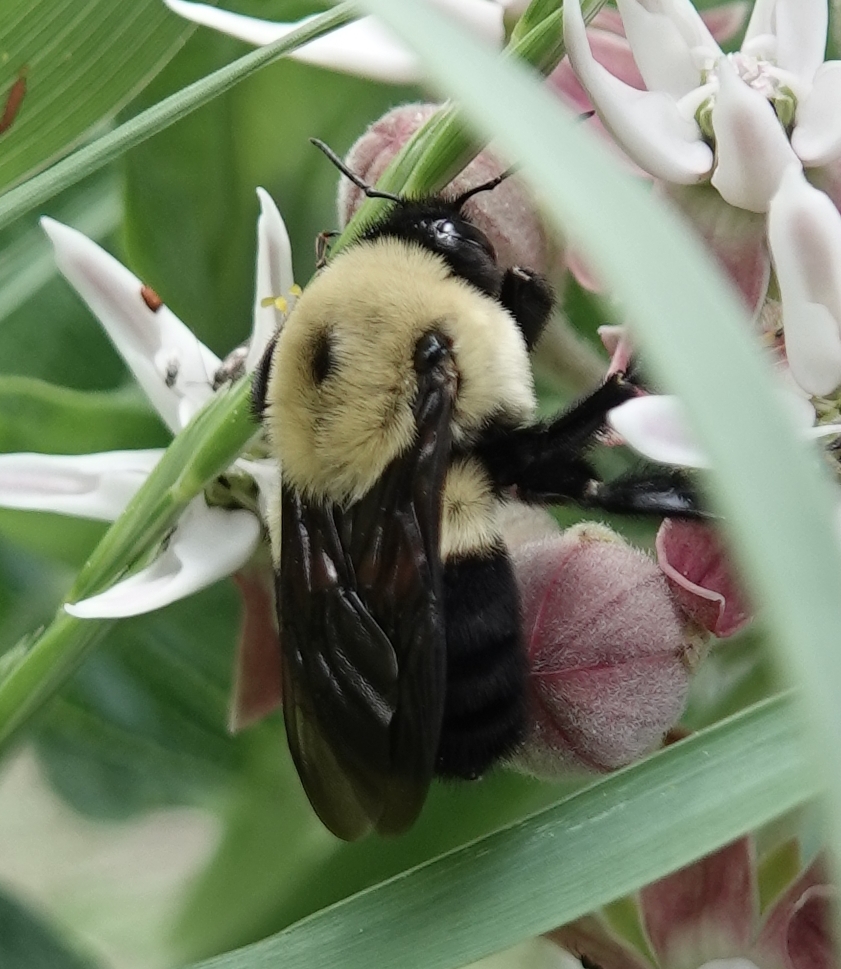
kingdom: Animalia
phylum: Arthropoda
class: Insecta
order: Hymenoptera
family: Apidae
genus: Bombus
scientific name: Bombus griseocollis
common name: Brown-belted bumble bee
